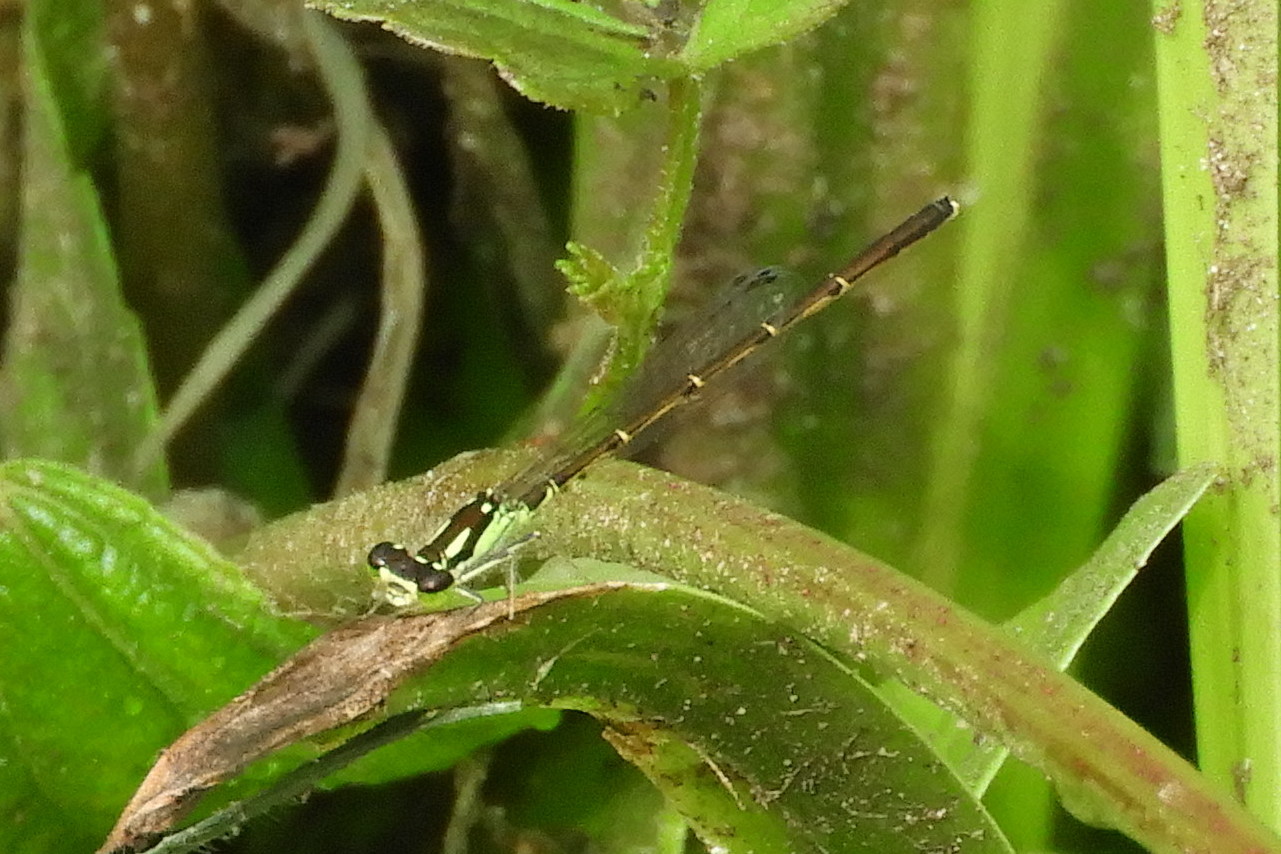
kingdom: Animalia
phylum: Arthropoda
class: Insecta
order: Odonata
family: Coenagrionidae
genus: Ischnura
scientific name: Ischnura posita
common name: Fragile forktail
